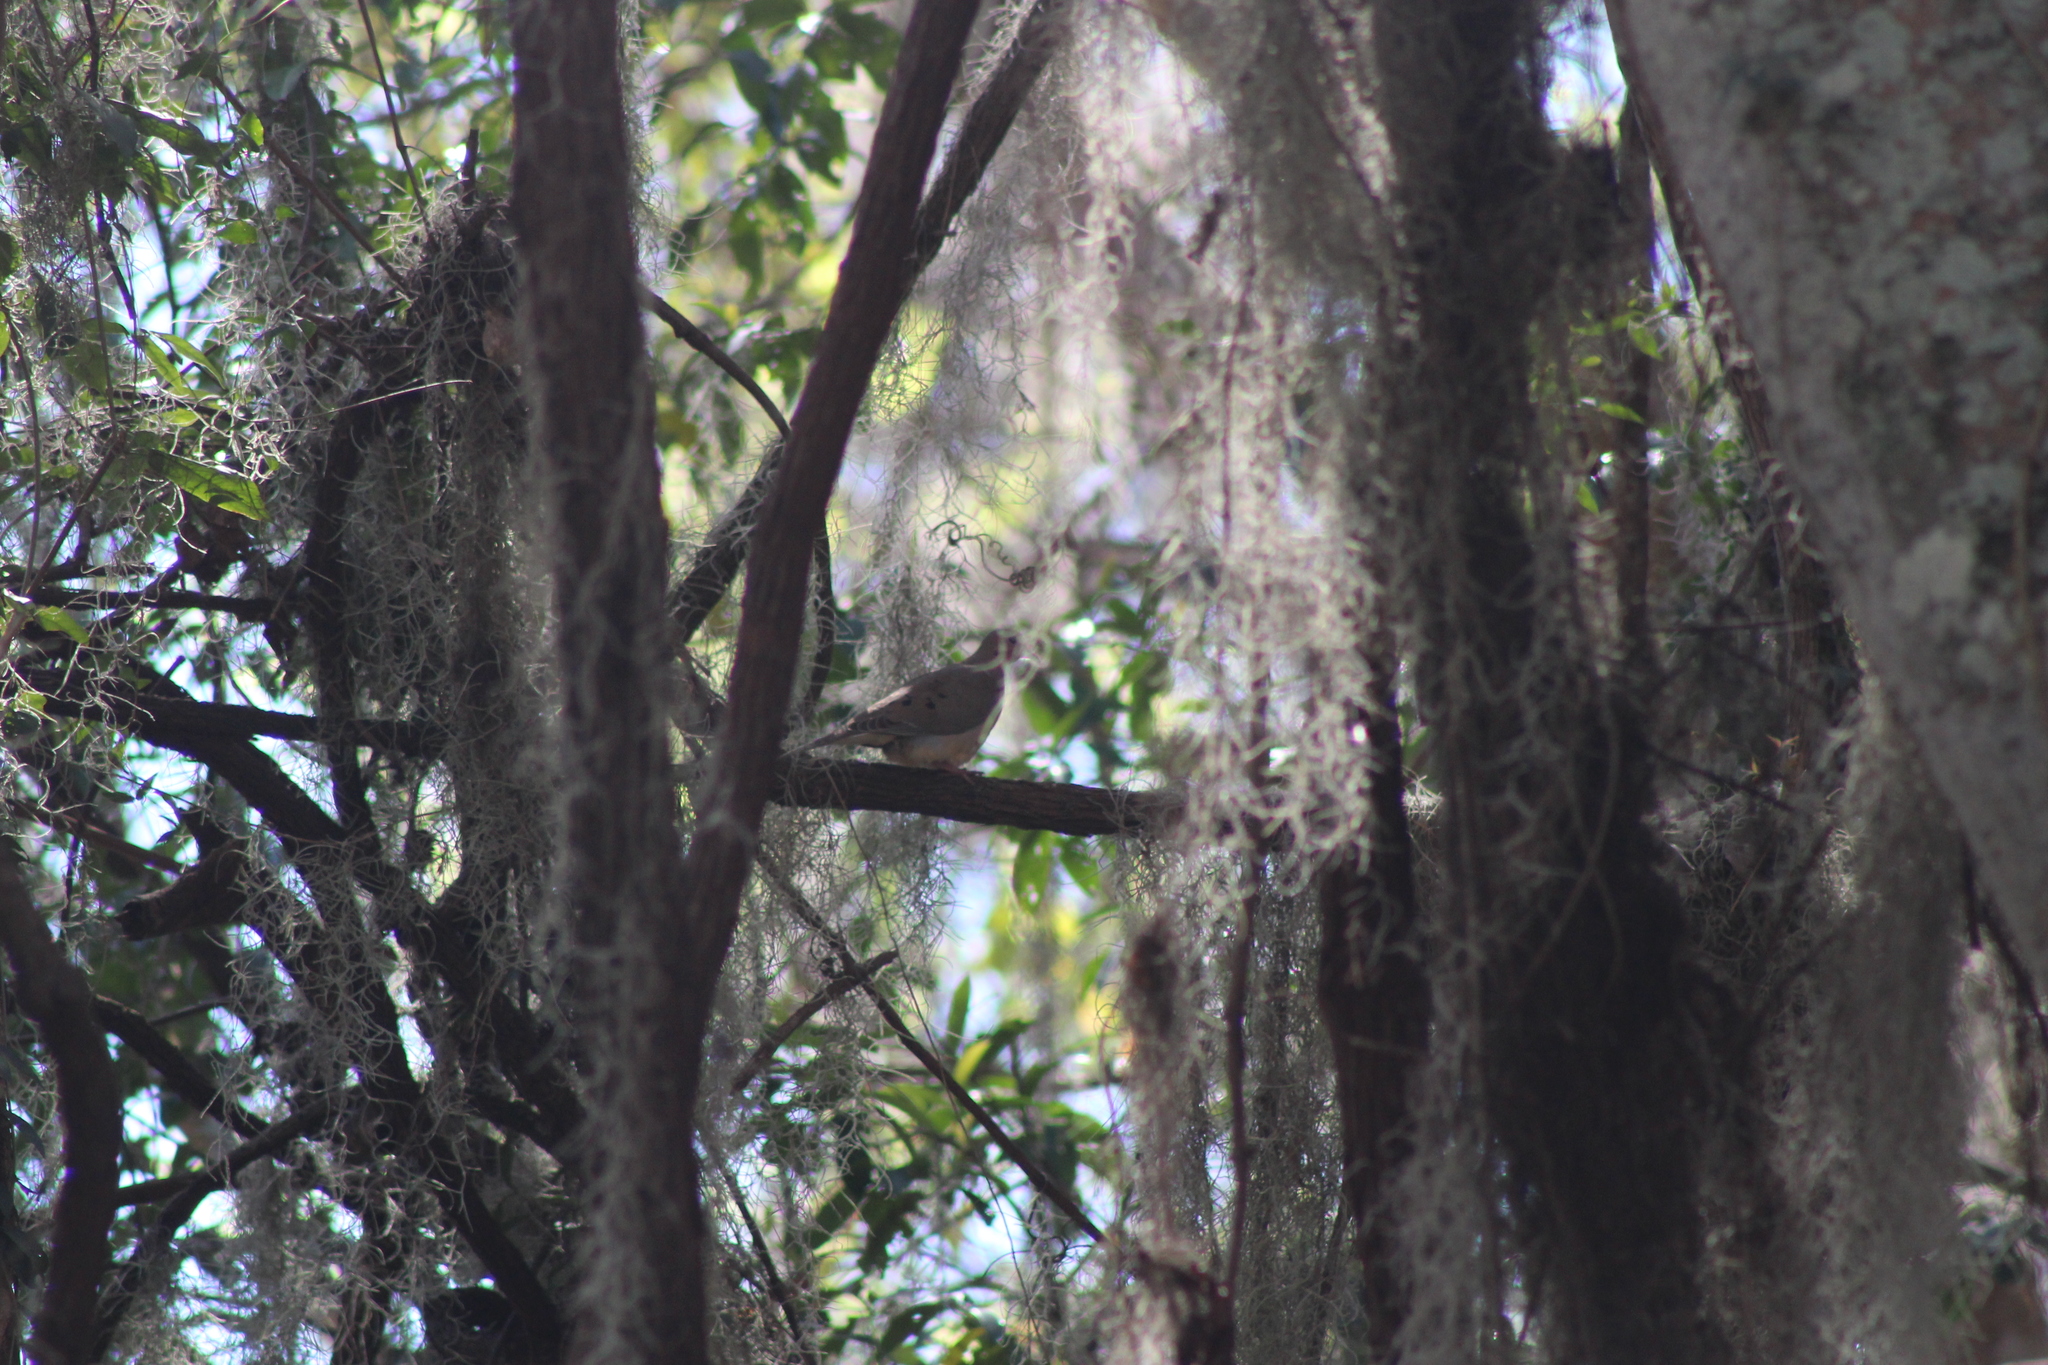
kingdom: Animalia
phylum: Chordata
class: Aves
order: Columbiformes
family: Columbidae
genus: Zenaida
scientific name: Zenaida macroura
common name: Mourning dove
